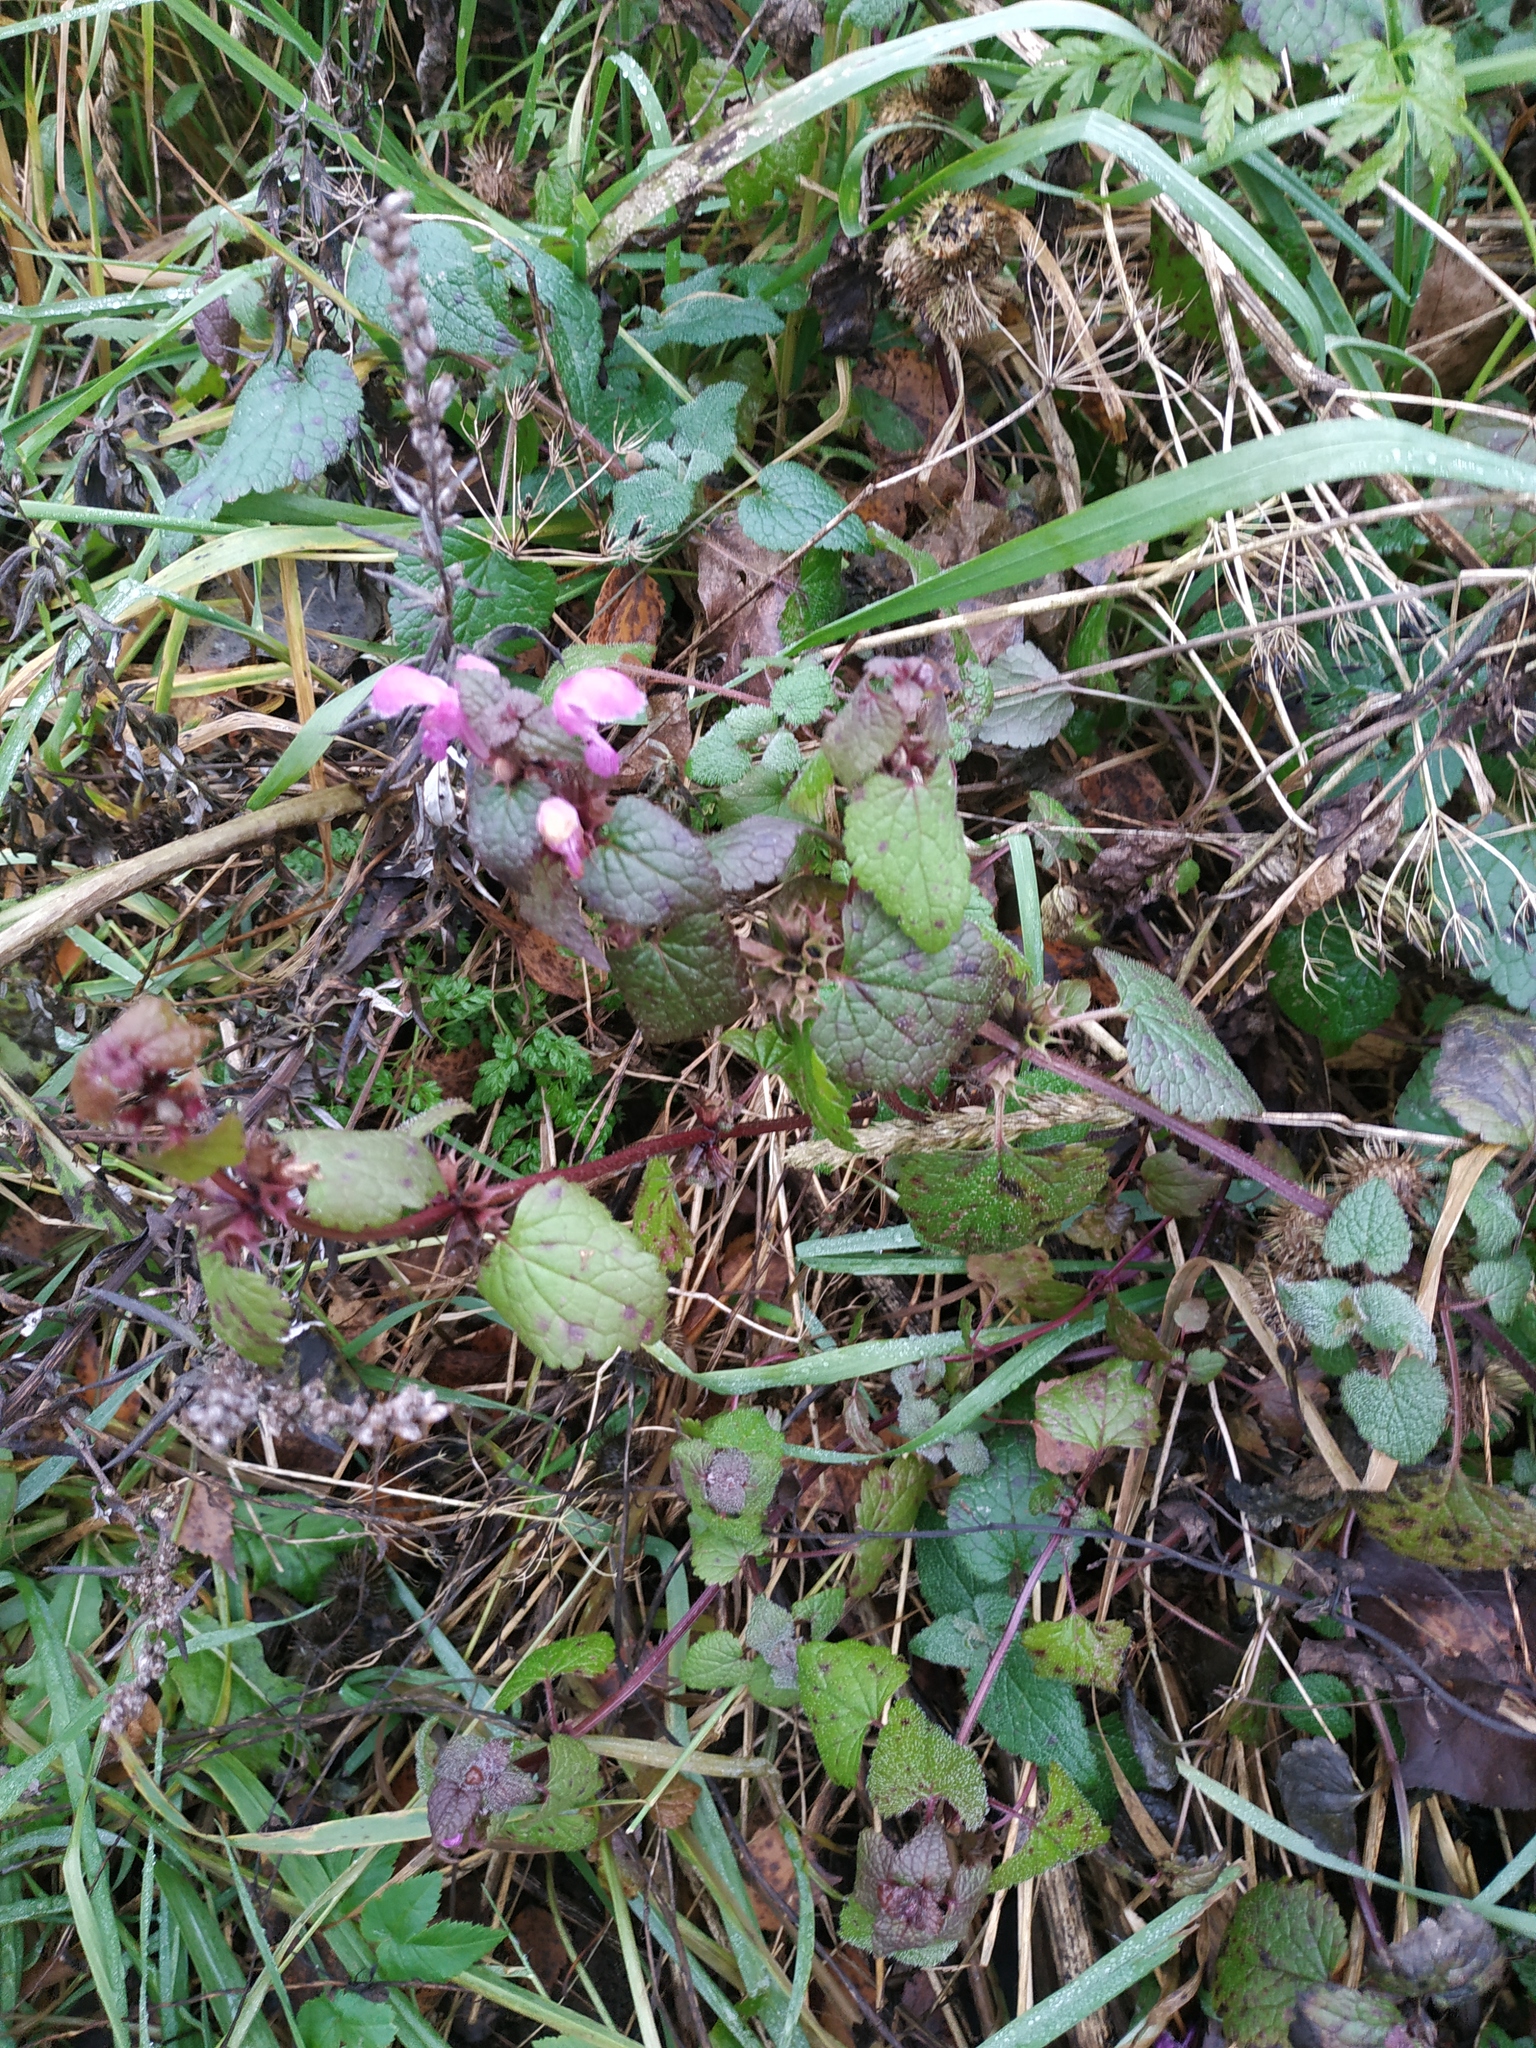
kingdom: Plantae
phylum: Tracheophyta
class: Magnoliopsida
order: Lamiales
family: Lamiaceae
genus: Lamium
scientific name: Lamium maculatum
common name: Spotted dead-nettle
